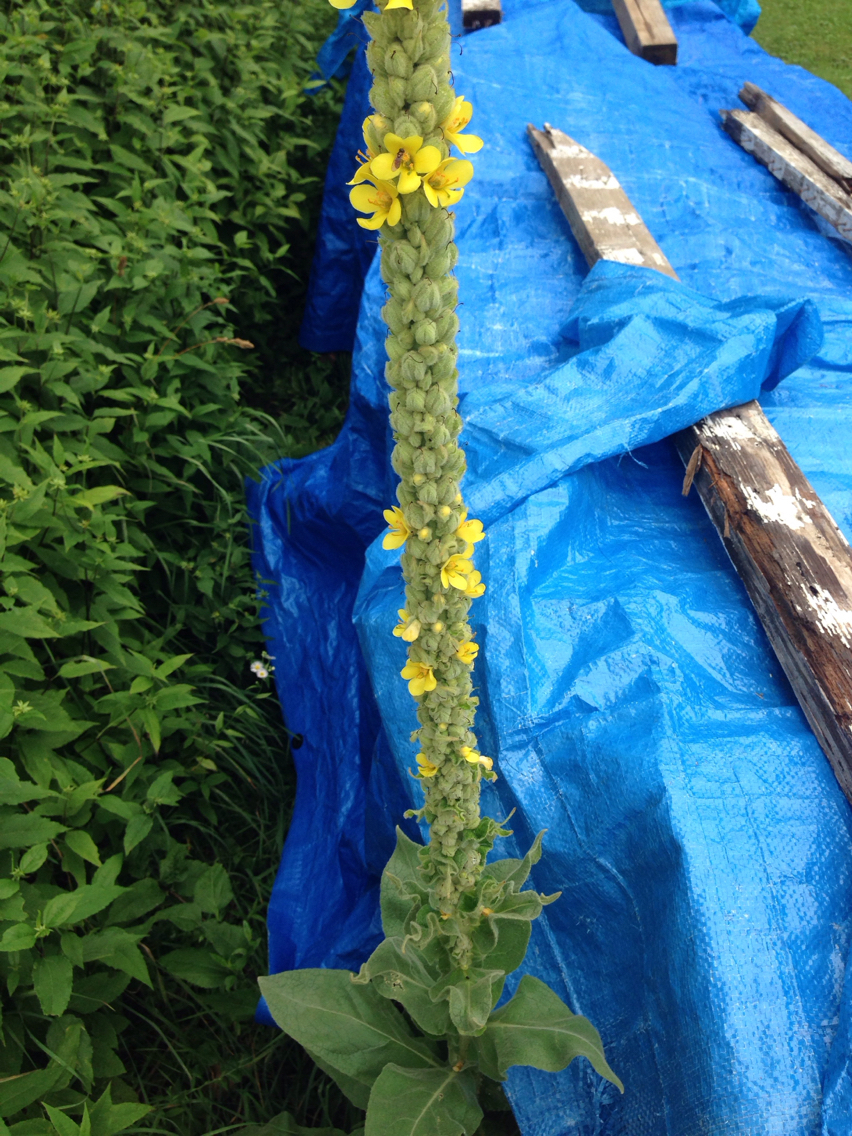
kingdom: Plantae
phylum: Tracheophyta
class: Magnoliopsida
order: Lamiales
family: Scrophulariaceae
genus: Verbascum
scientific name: Verbascum thapsus
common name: Common mullein
